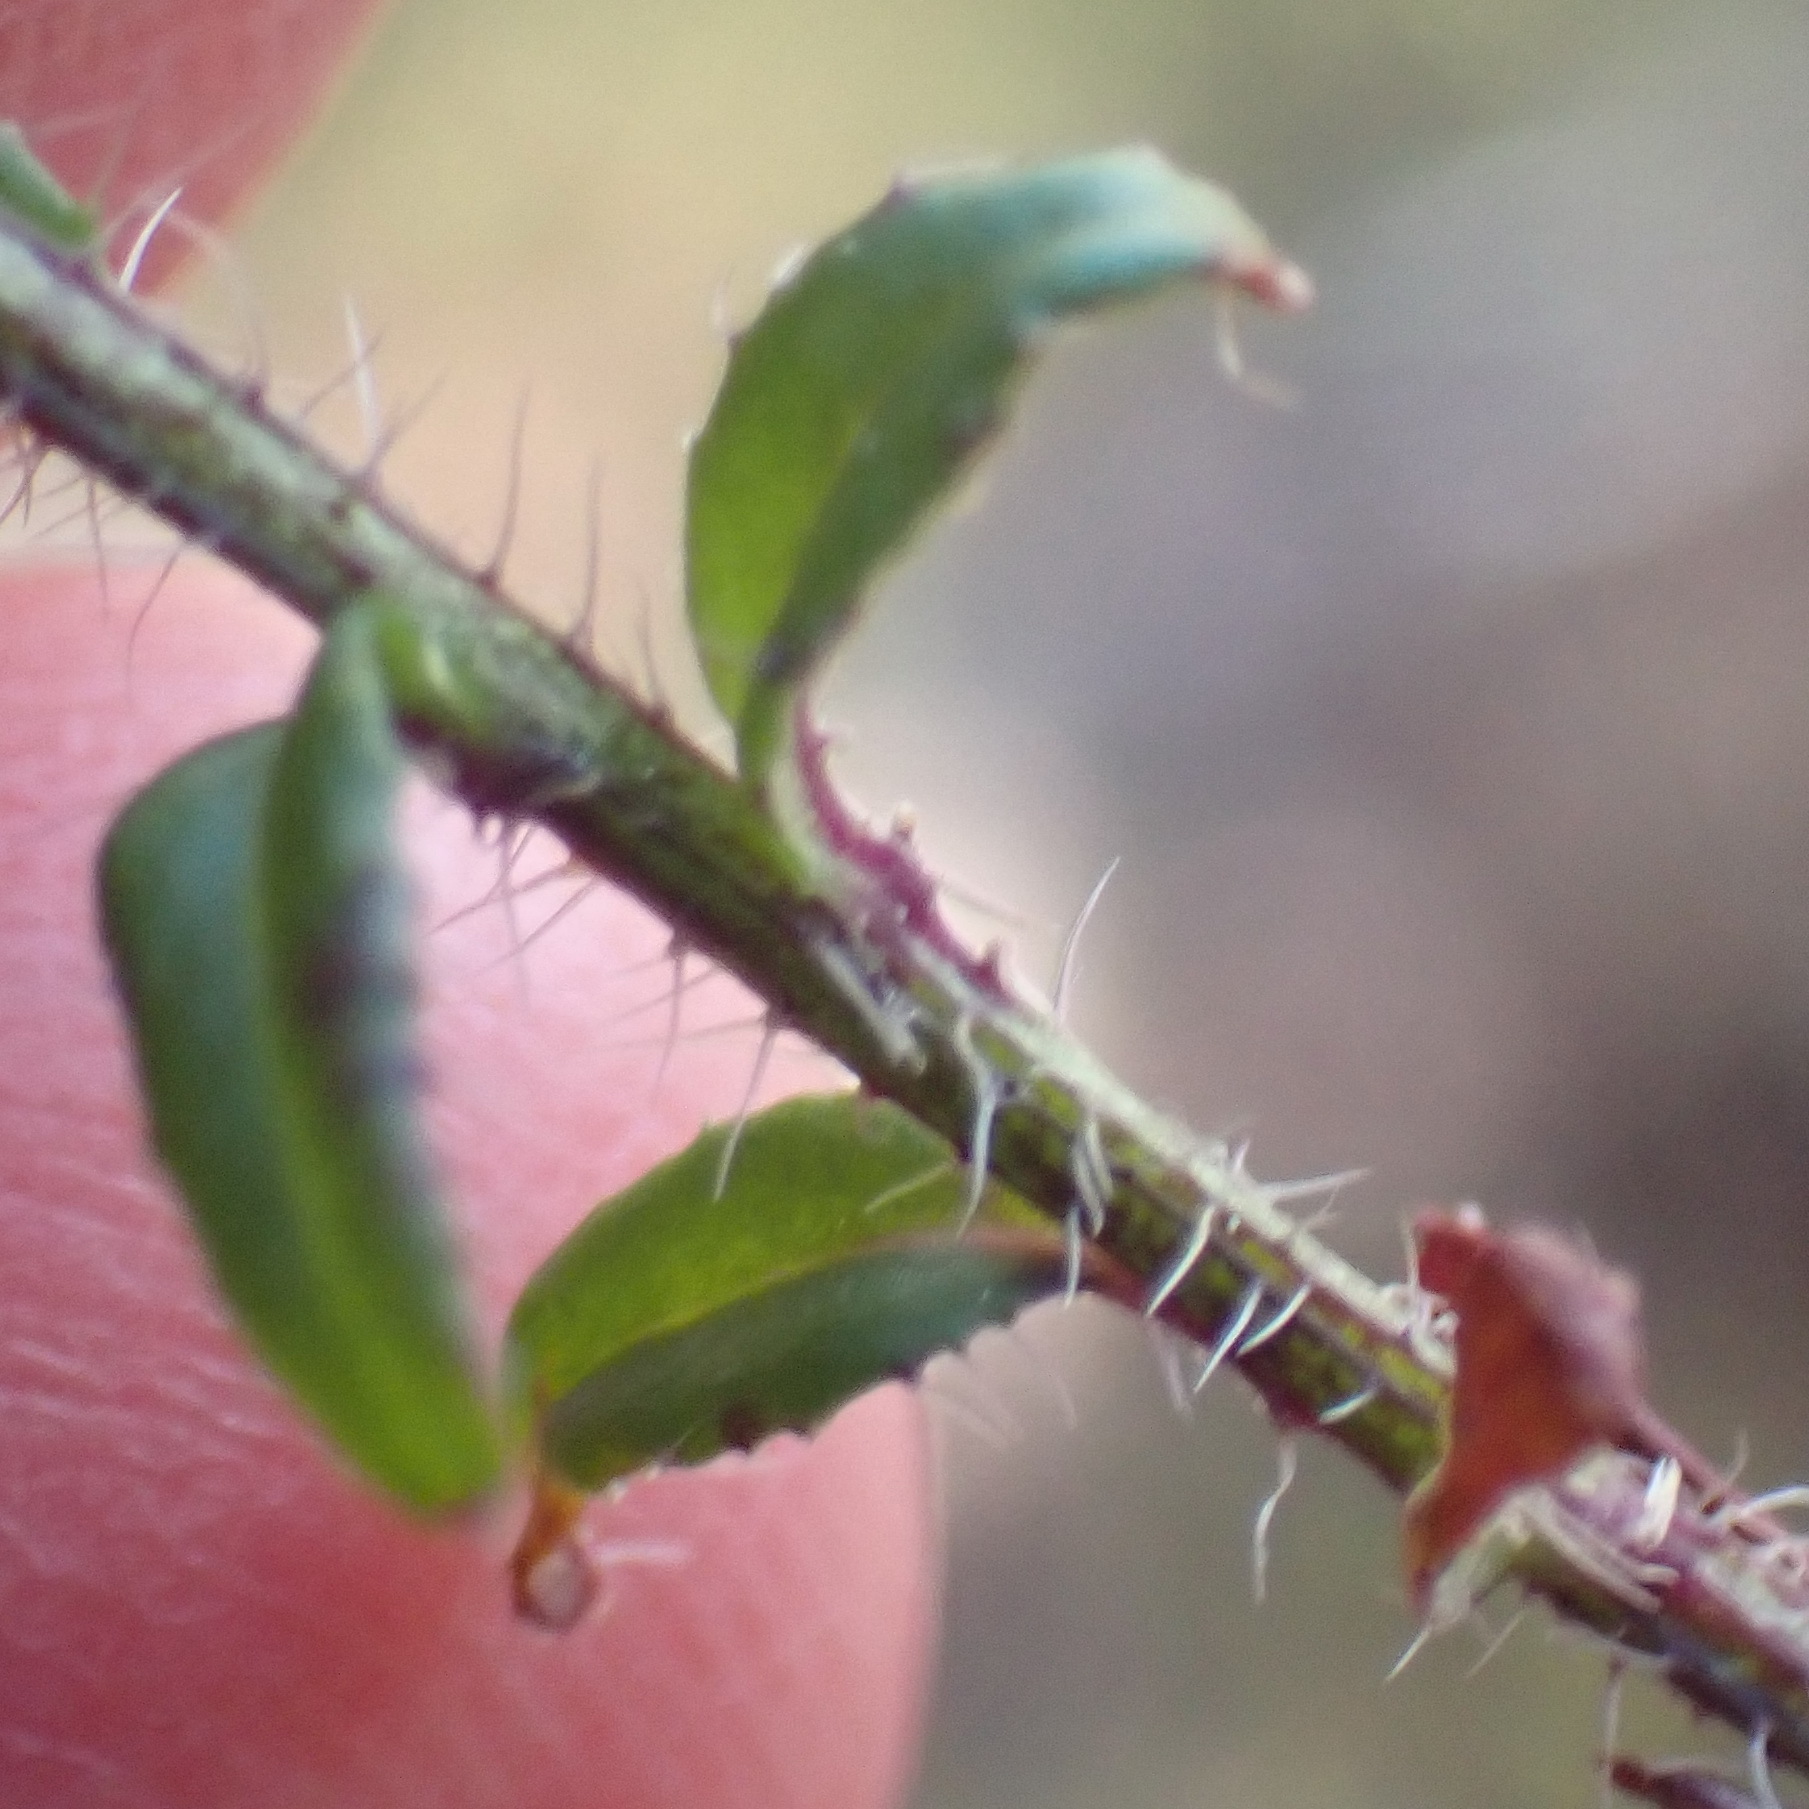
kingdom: Plantae
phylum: Tracheophyta
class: Magnoliopsida
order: Asterales
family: Campanulaceae
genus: Lobelia
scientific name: Lobelia neglecta
